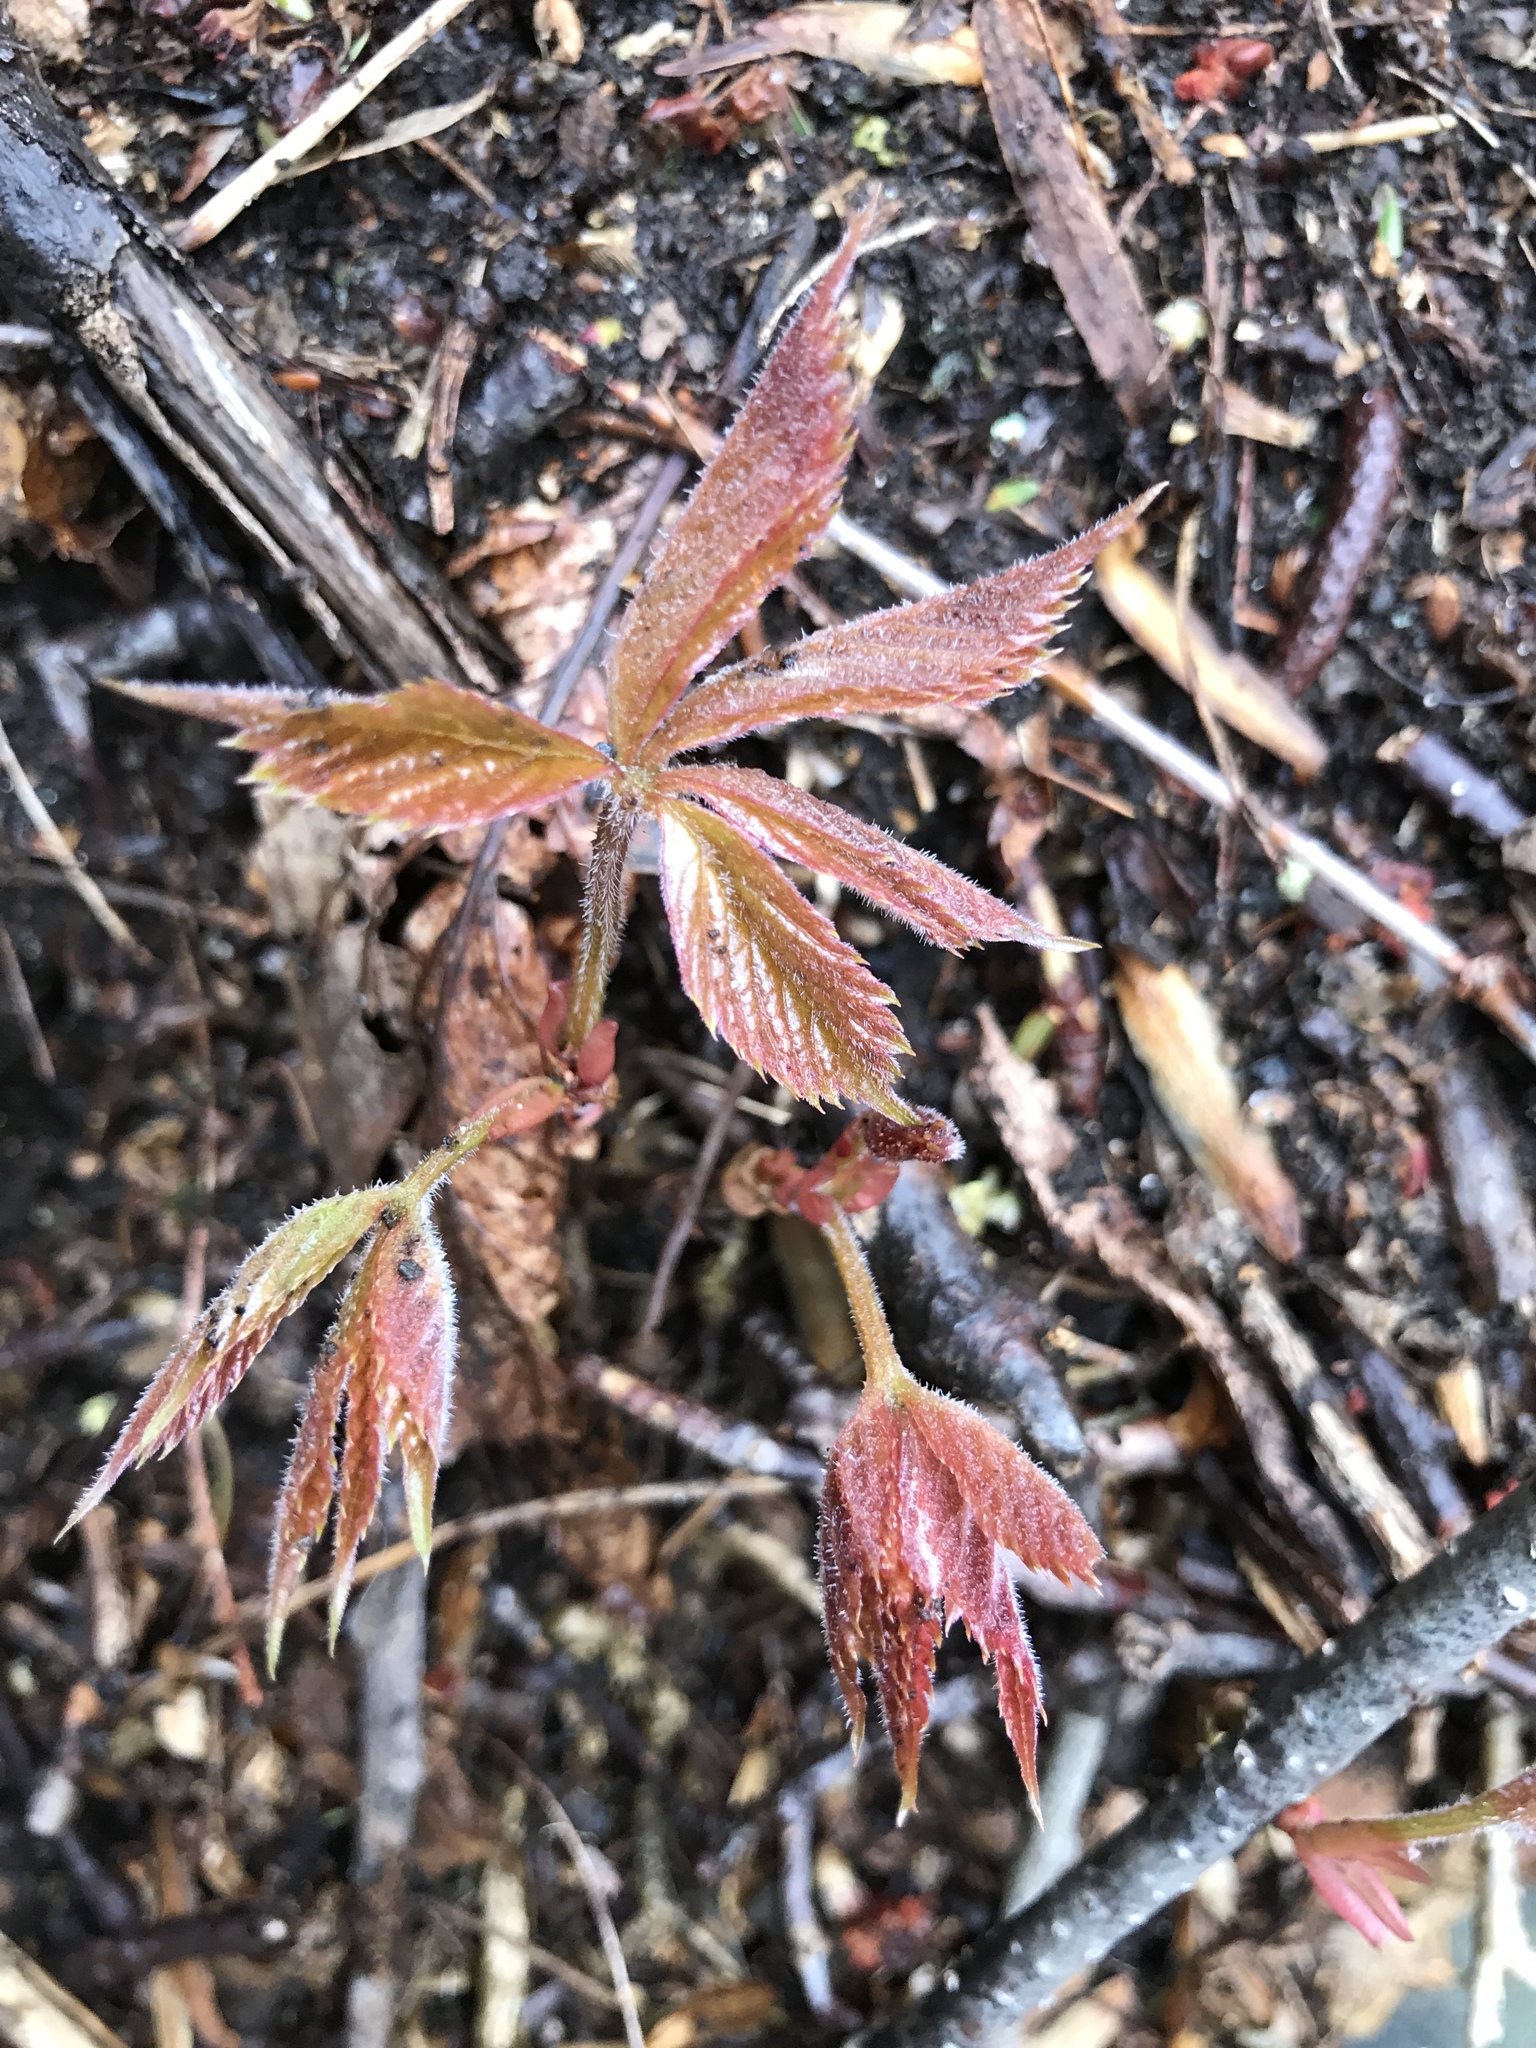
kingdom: Plantae
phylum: Tracheophyta
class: Magnoliopsida
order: Vitales
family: Vitaceae
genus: Parthenocissus
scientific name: Parthenocissus quinquefolia
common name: Virginia-creeper
